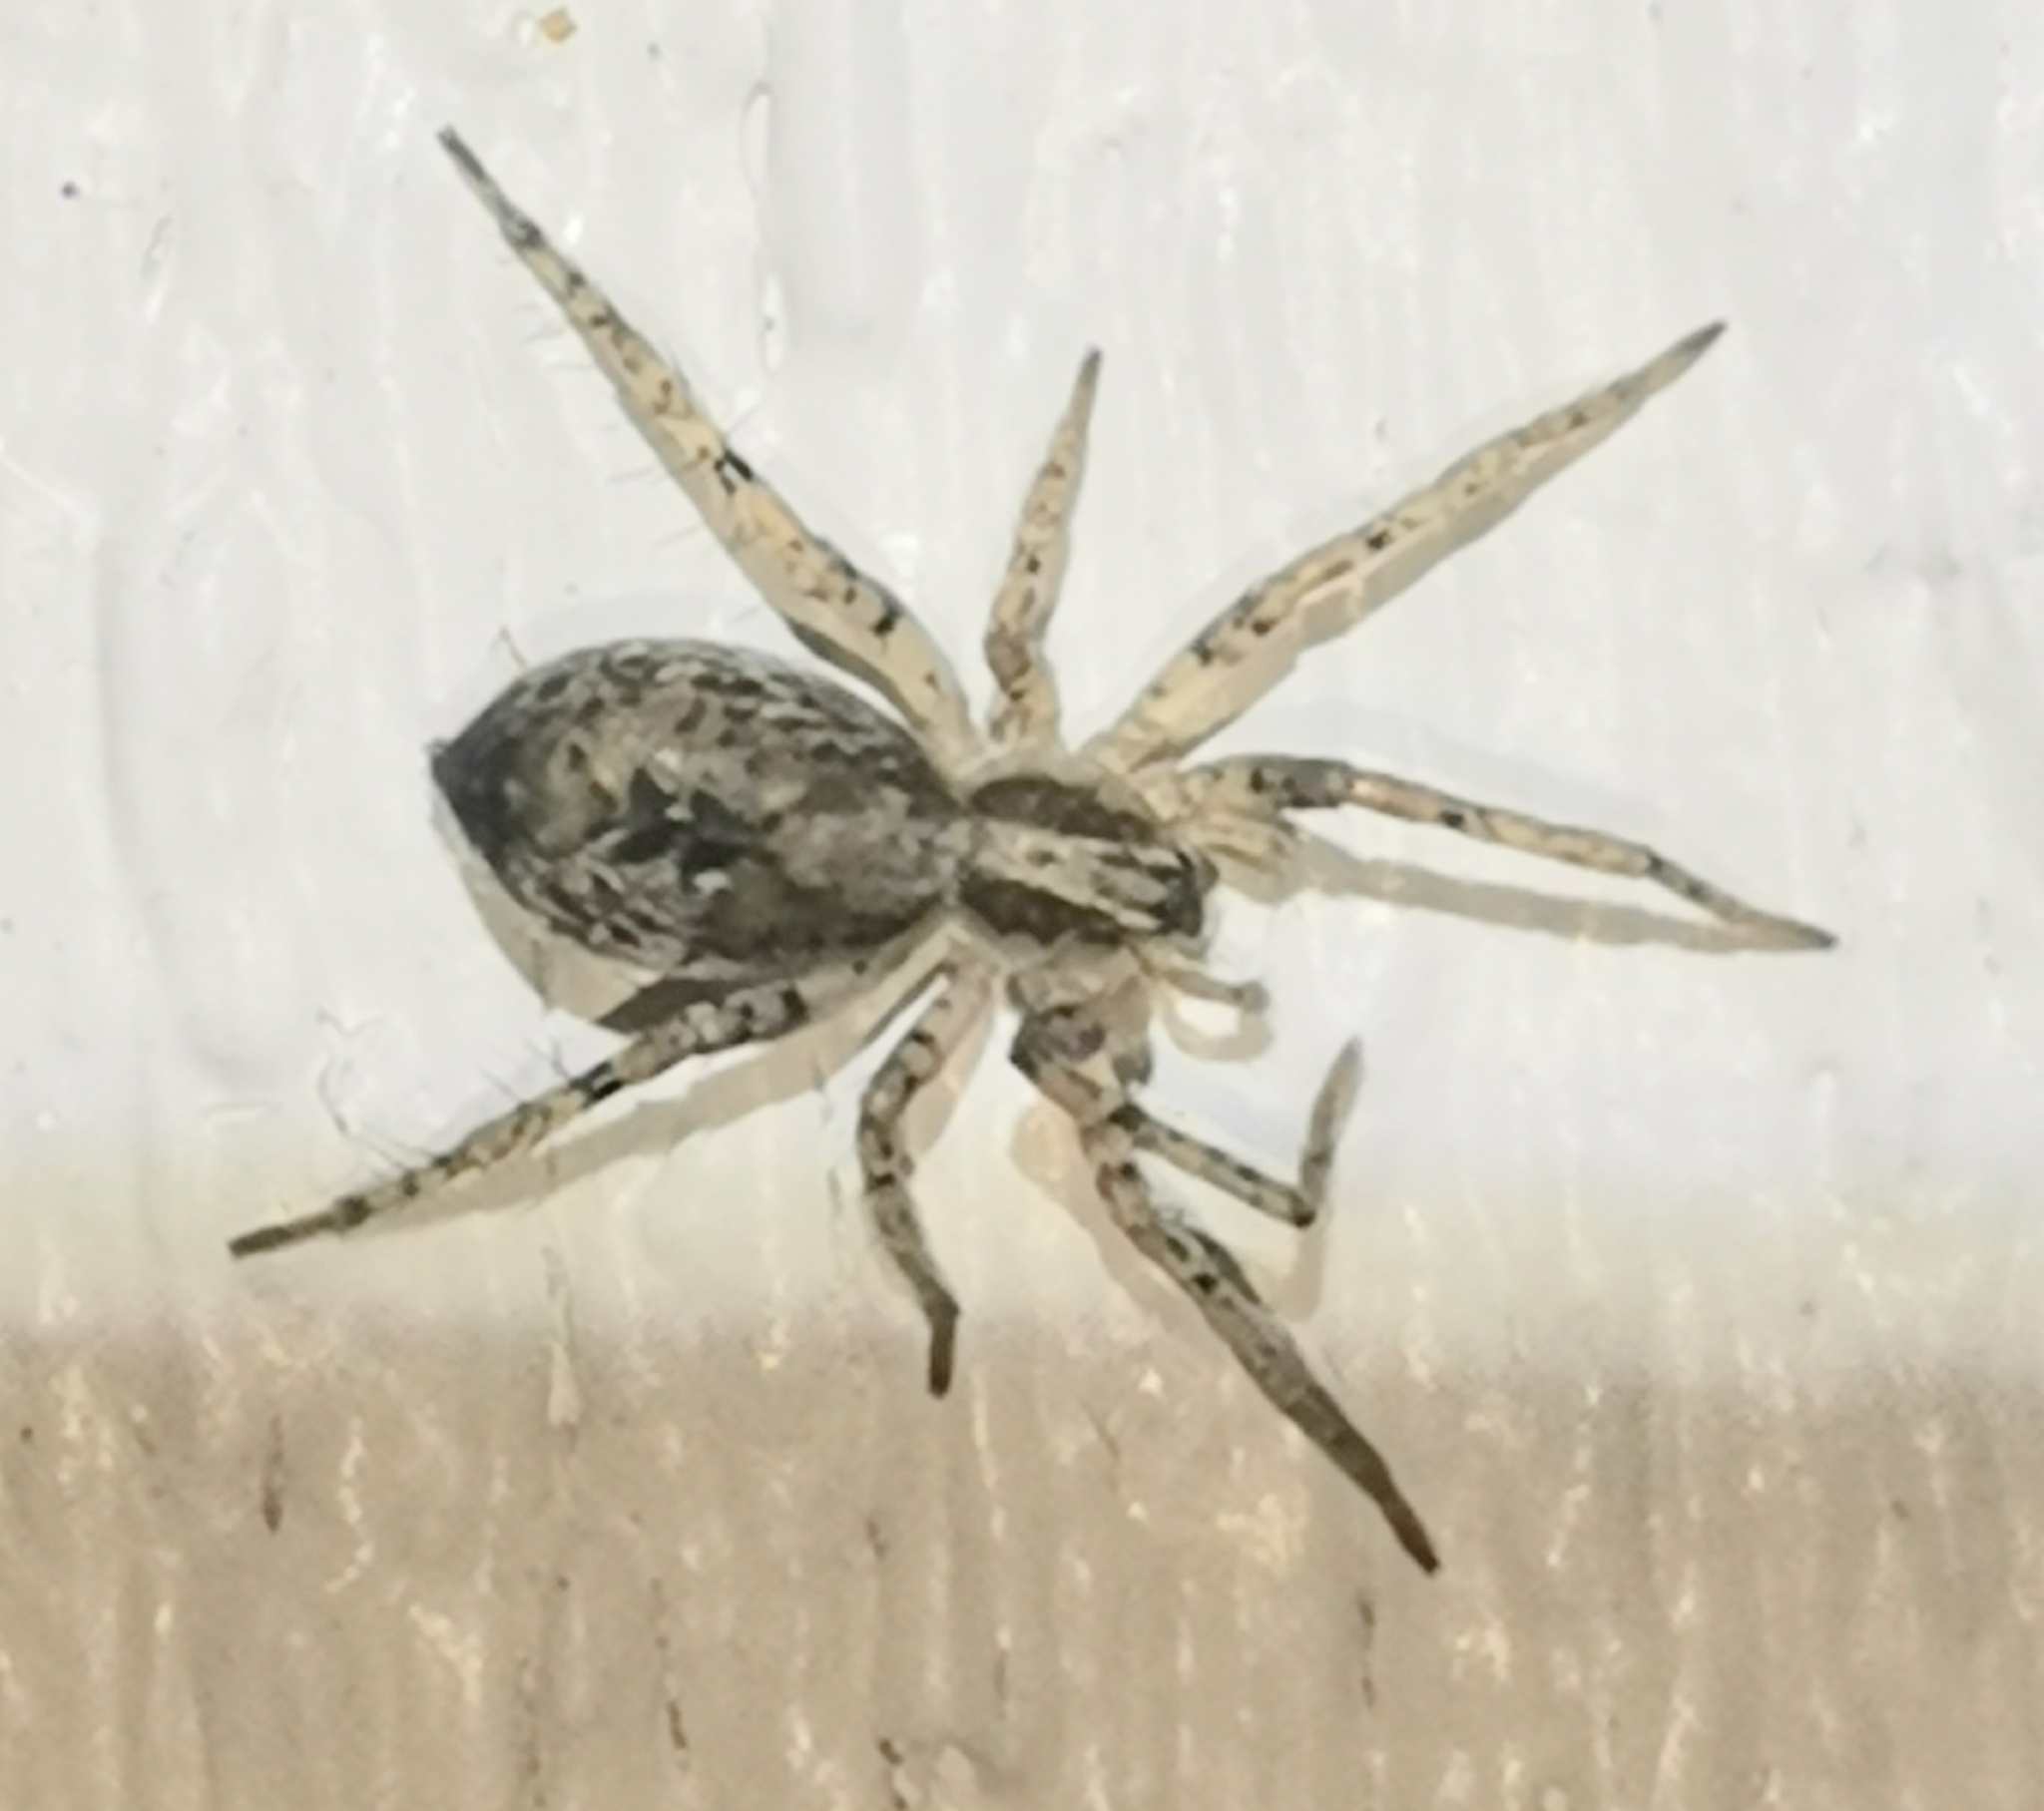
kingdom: Animalia
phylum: Arthropoda
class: Arachnida
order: Araneae
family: Anyphaenidae
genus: Anyphaena
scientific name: Anyphaena accentuata
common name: Buzzing spider
